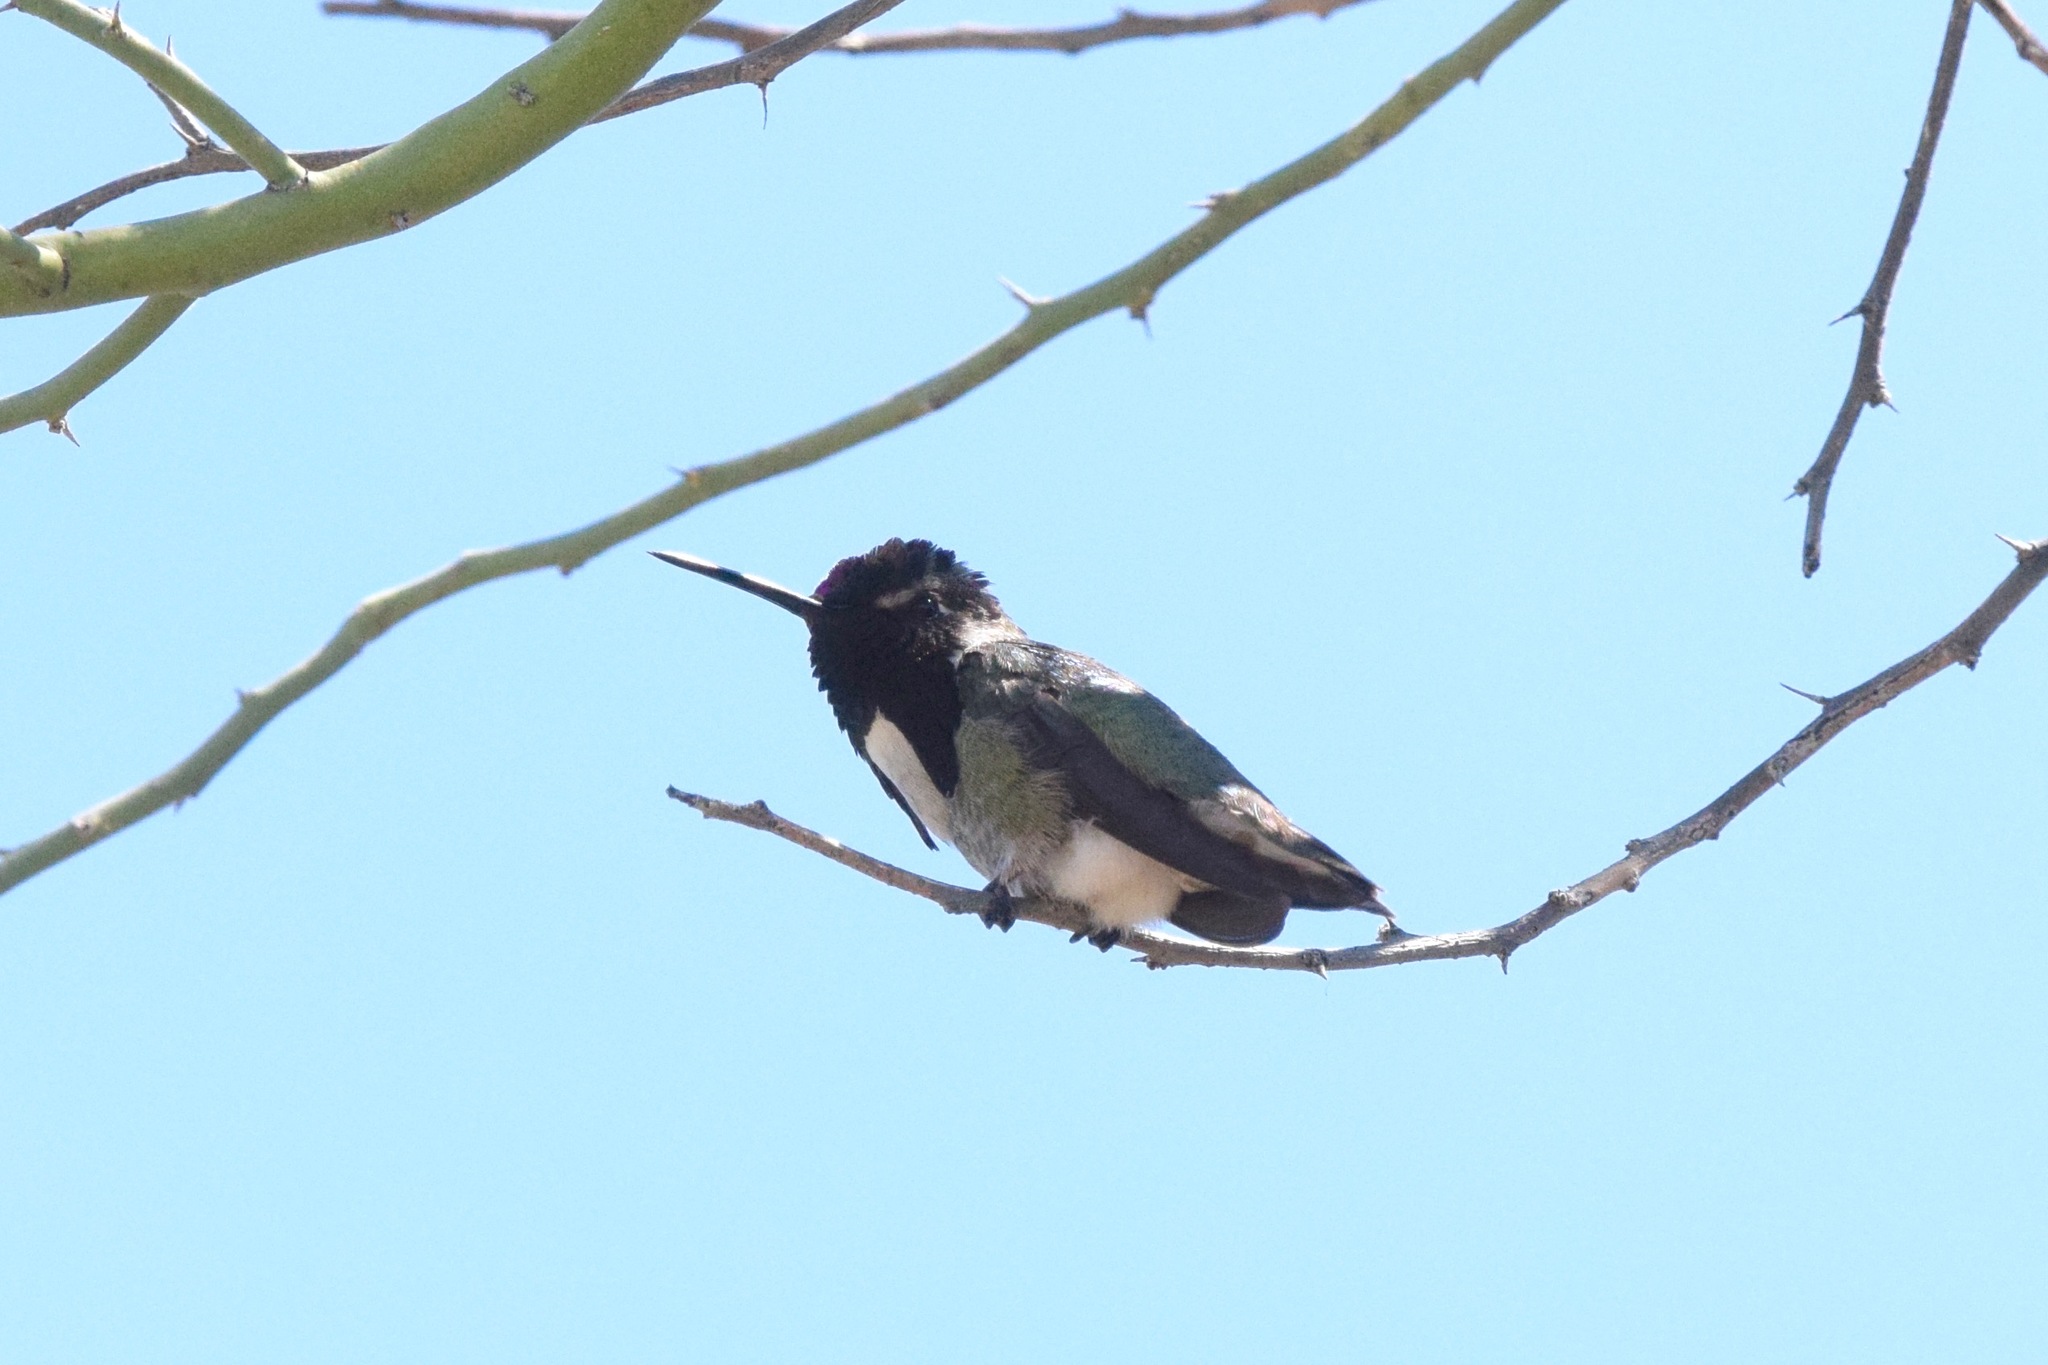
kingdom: Animalia
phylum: Chordata
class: Aves
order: Apodiformes
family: Trochilidae
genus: Calypte
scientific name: Calypte costae
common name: Costa's hummingbird
